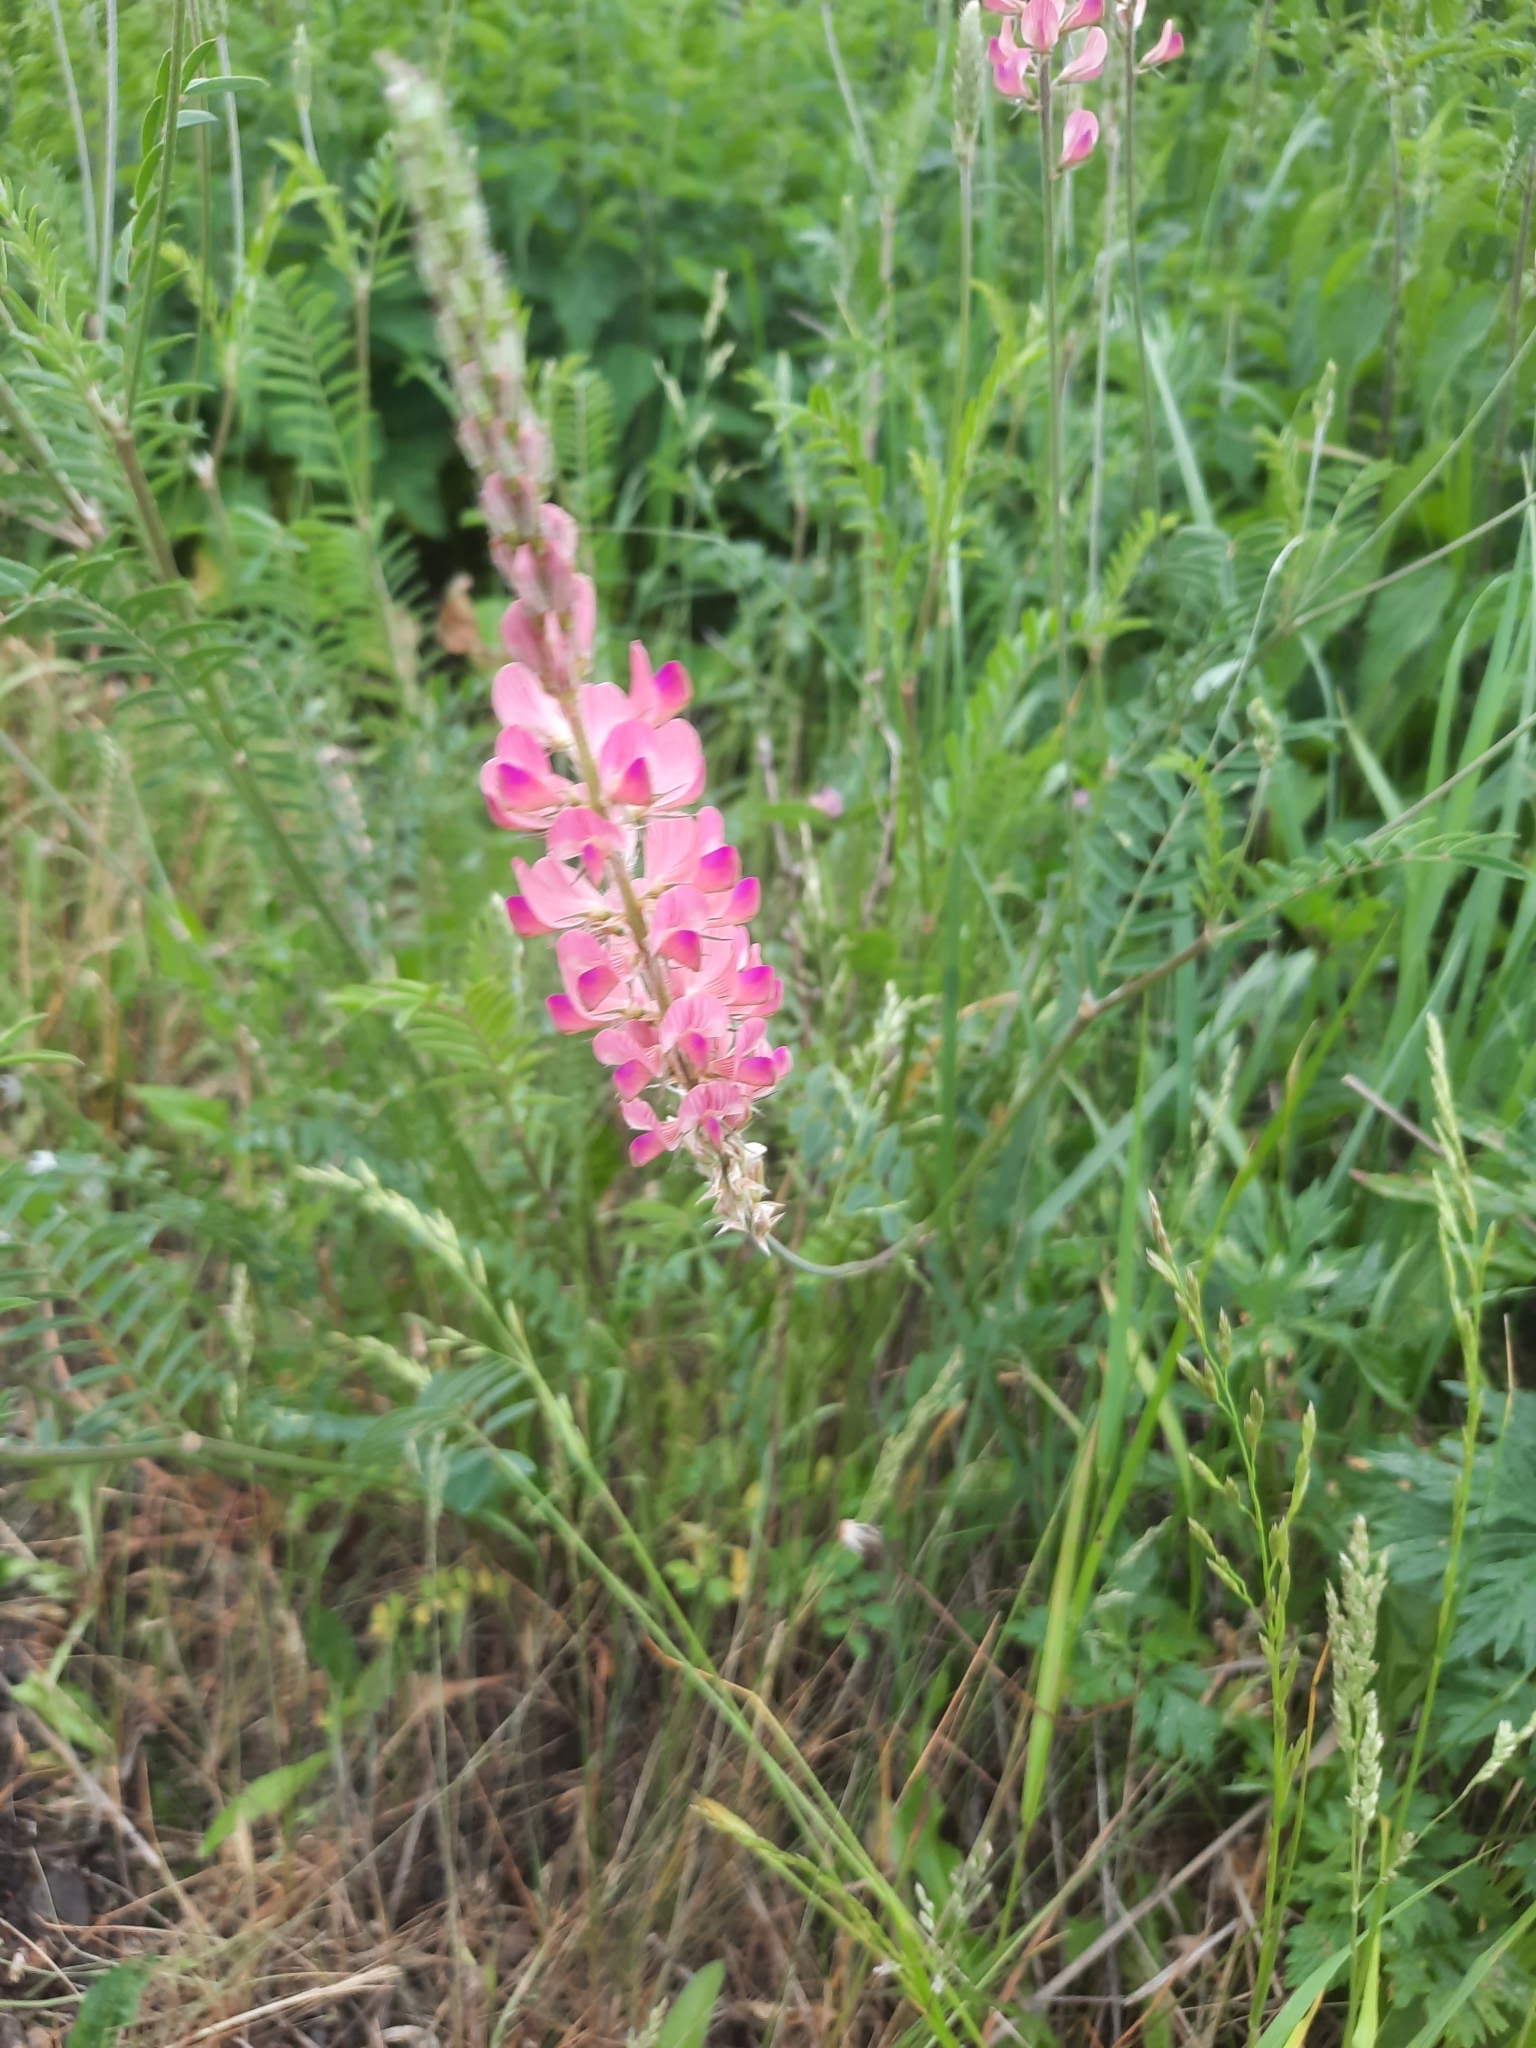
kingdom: Plantae
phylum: Tracheophyta
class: Magnoliopsida
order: Fabales
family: Fabaceae
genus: Onobrychis
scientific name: Onobrychis viciifolia
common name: Sainfoin
